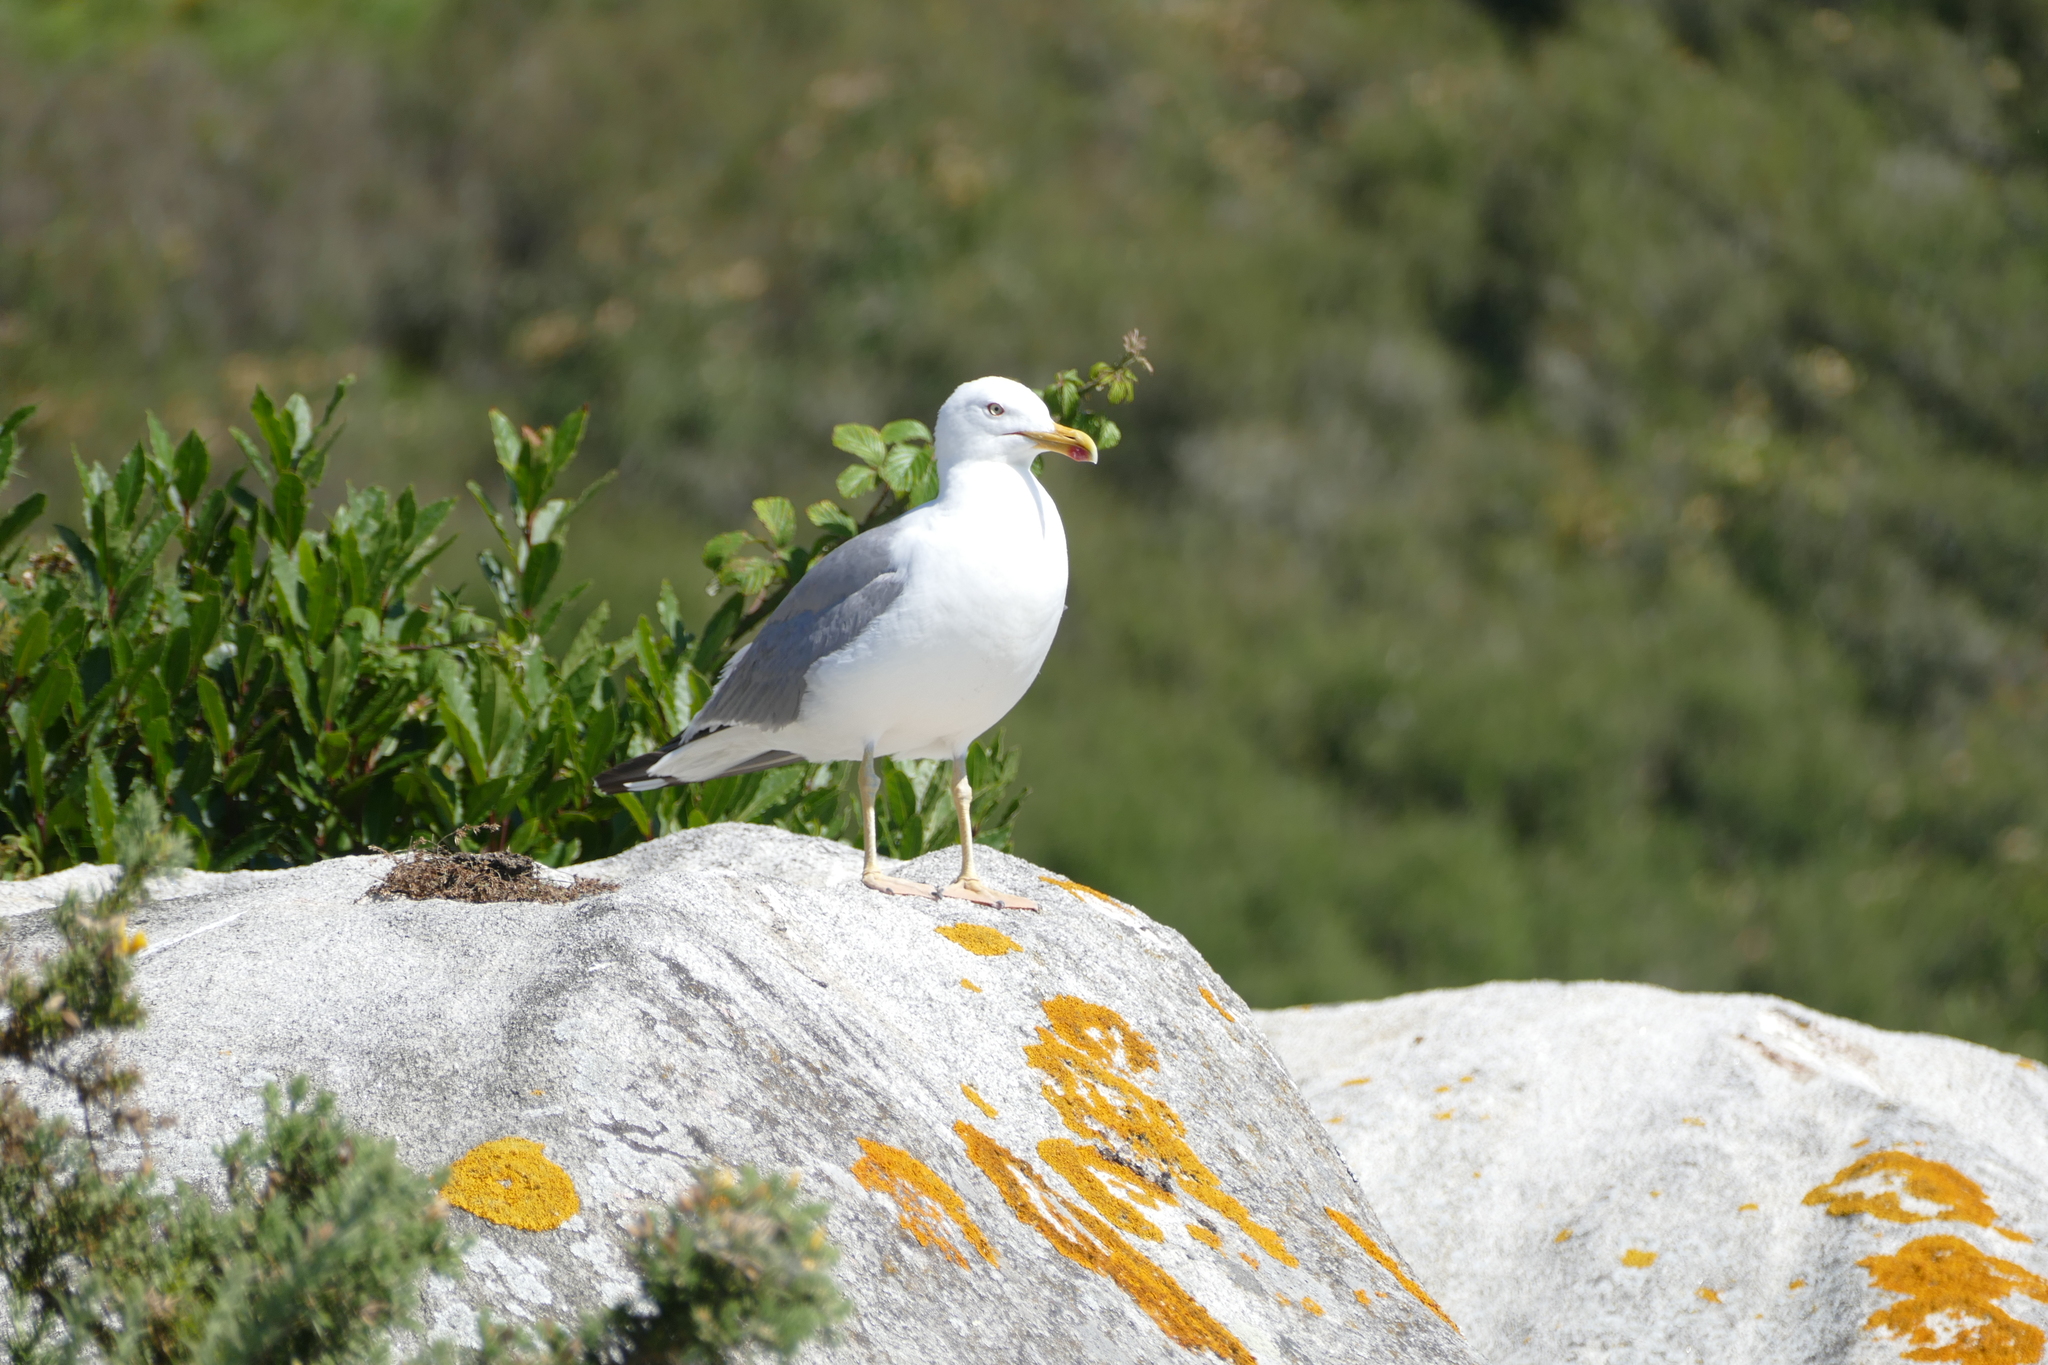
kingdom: Animalia
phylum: Chordata
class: Aves
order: Charadriiformes
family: Laridae
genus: Larus
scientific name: Larus michahellis
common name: Yellow-legged gull
